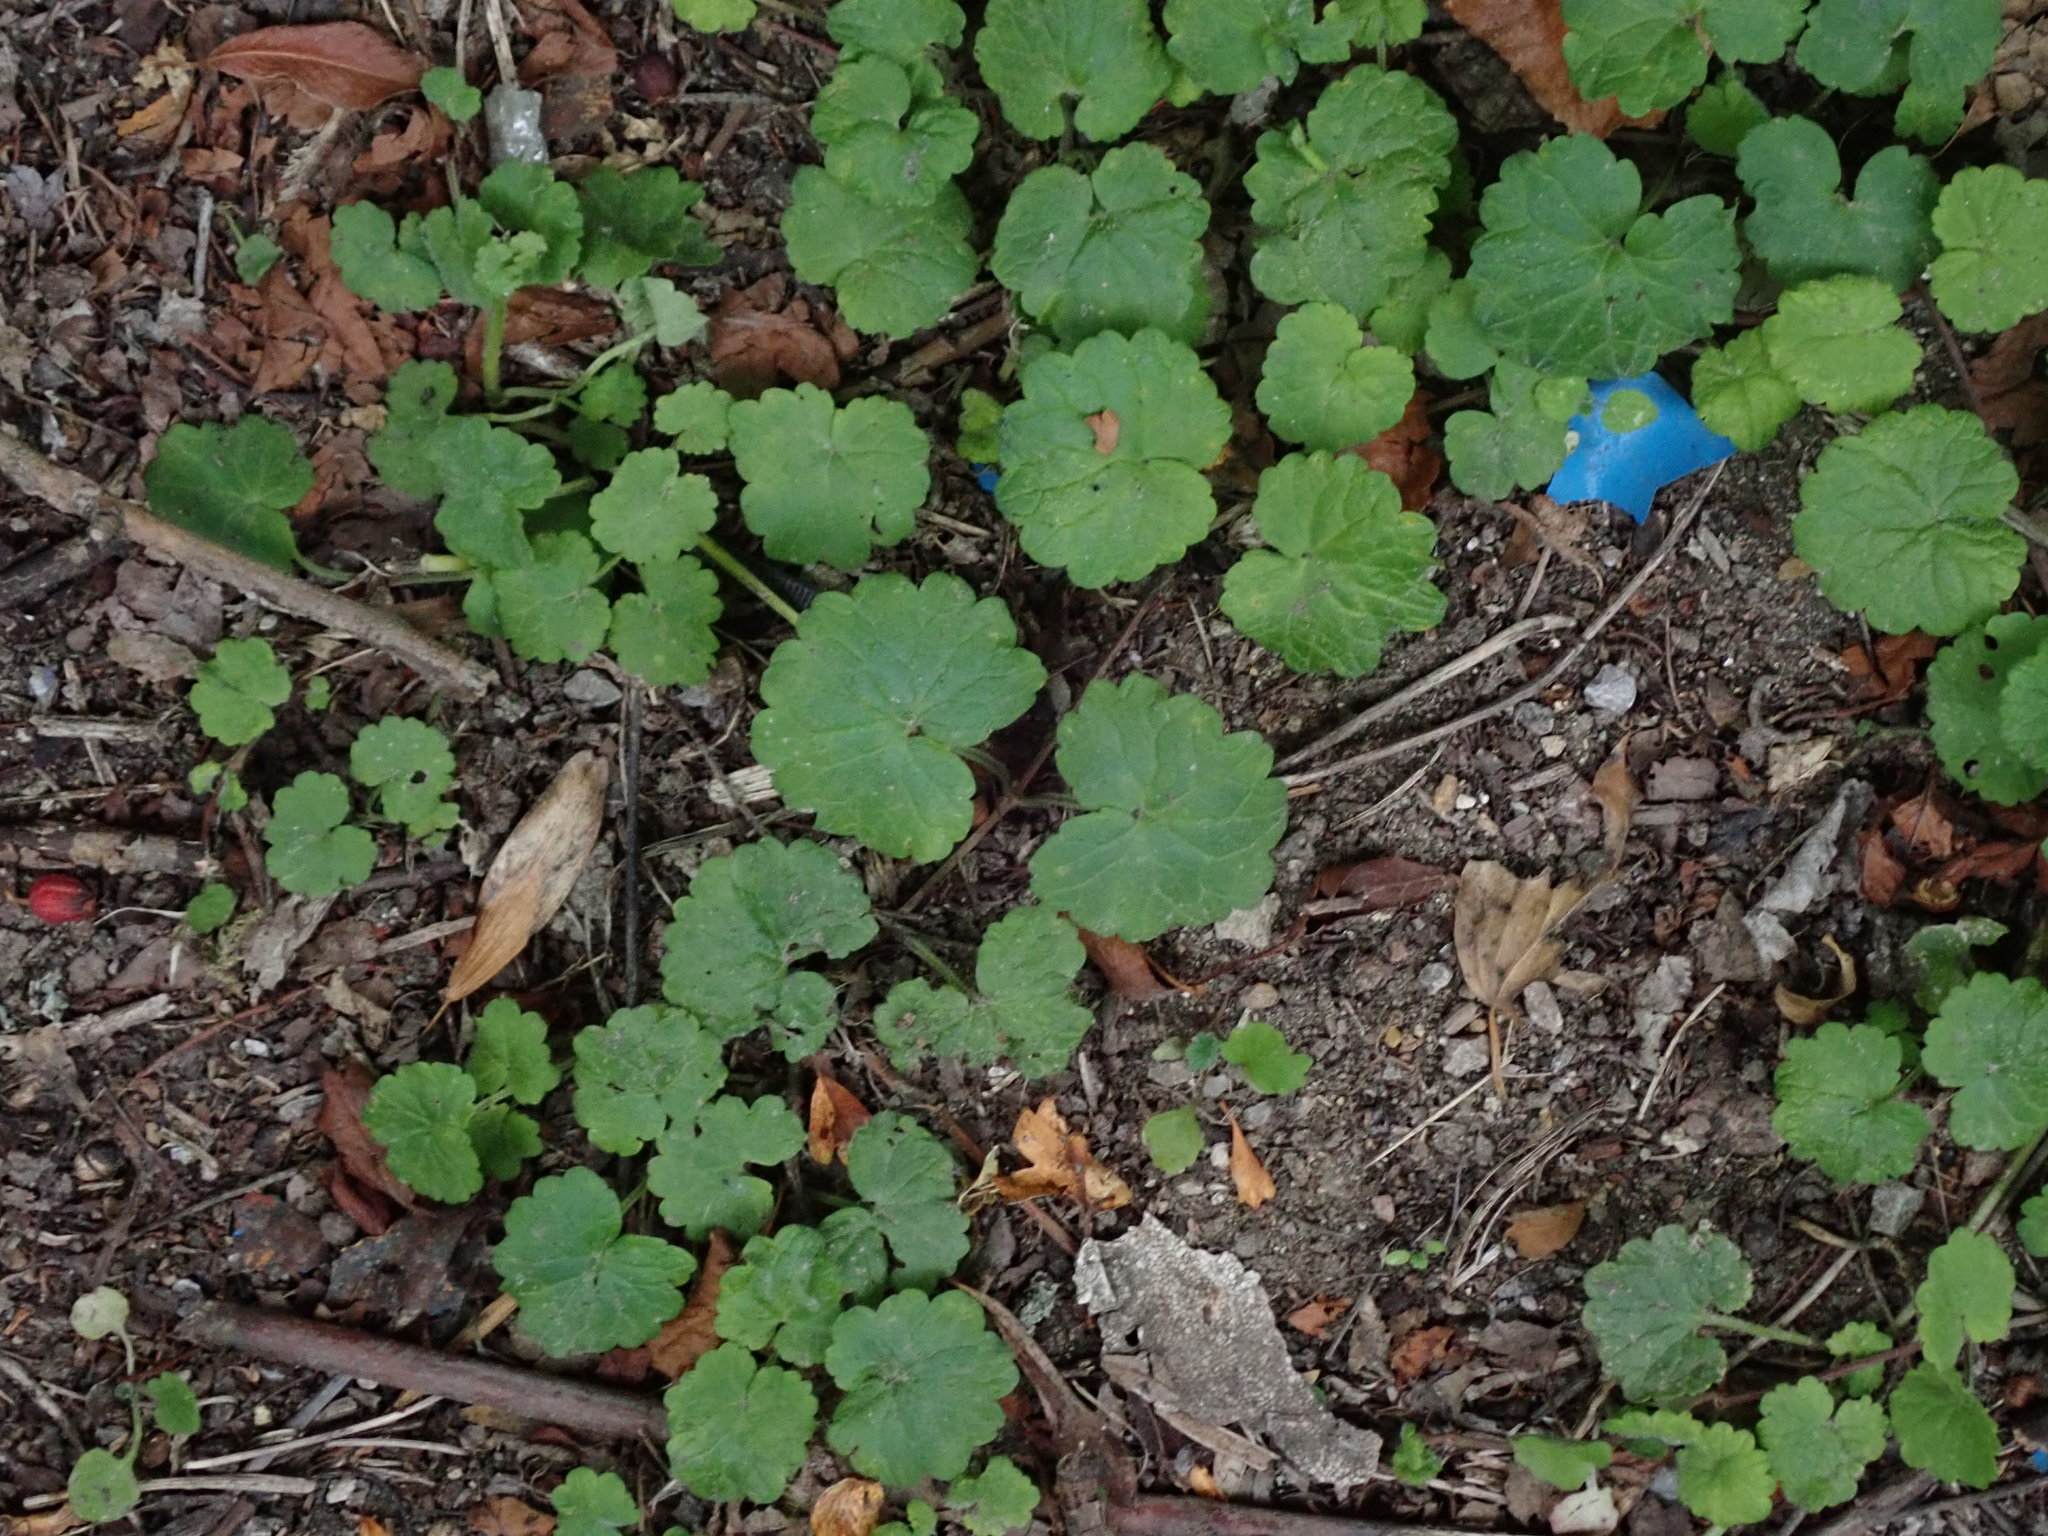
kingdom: Plantae
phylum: Tracheophyta
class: Magnoliopsida
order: Lamiales
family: Lamiaceae
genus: Glechoma
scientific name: Glechoma hederacea
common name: Ground ivy
